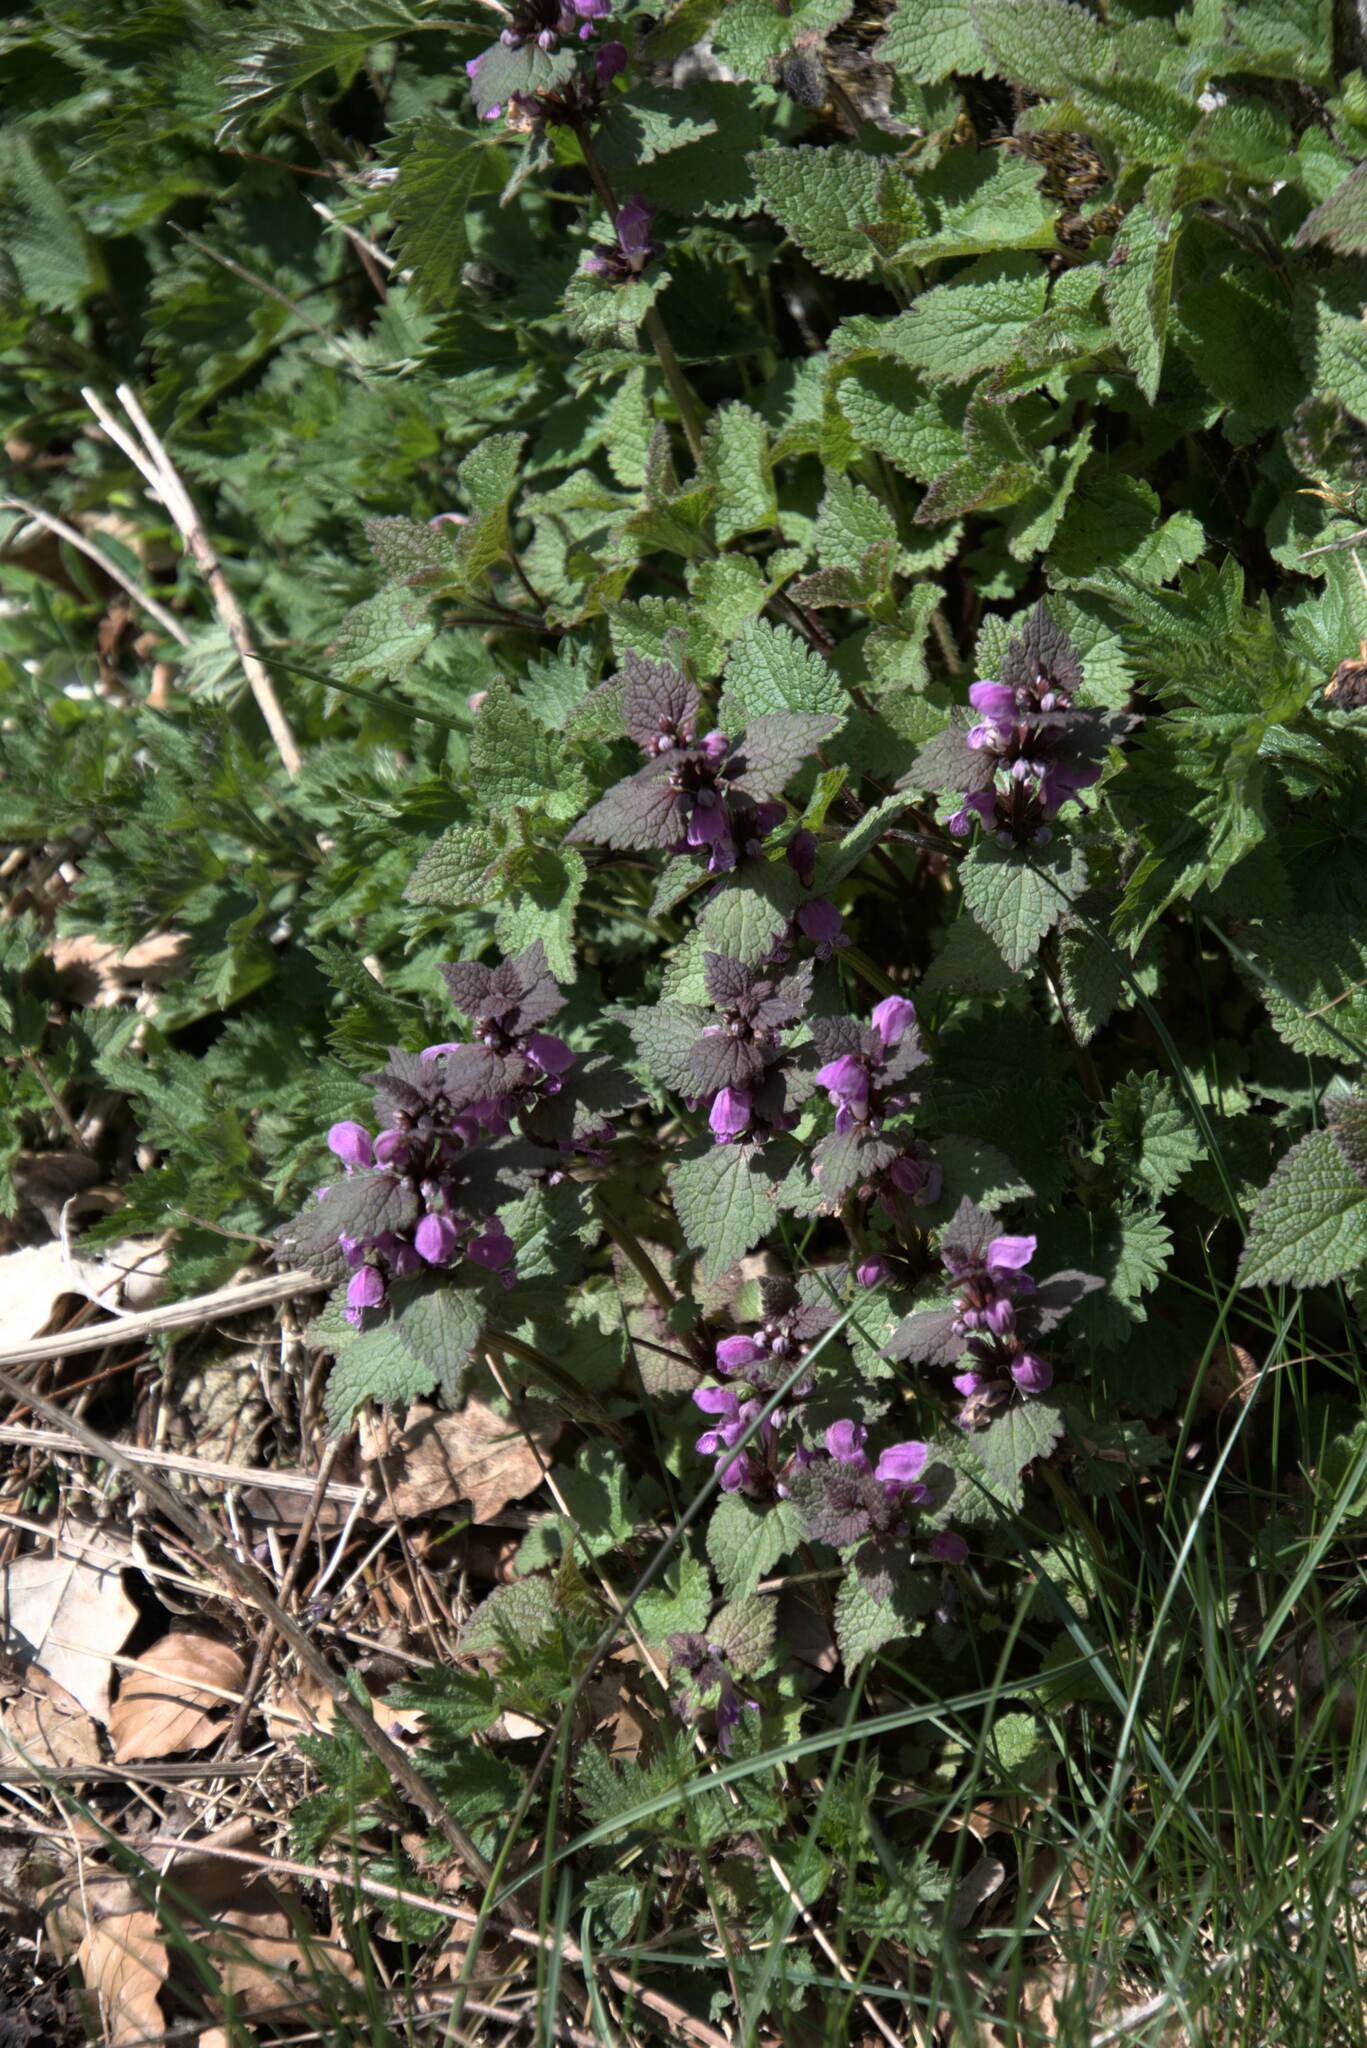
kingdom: Plantae
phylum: Tracheophyta
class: Magnoliopsida
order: Lamiales
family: Lamiaceae
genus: Lamium
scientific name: Lamium maculatum
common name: Spotted dead-nettle
